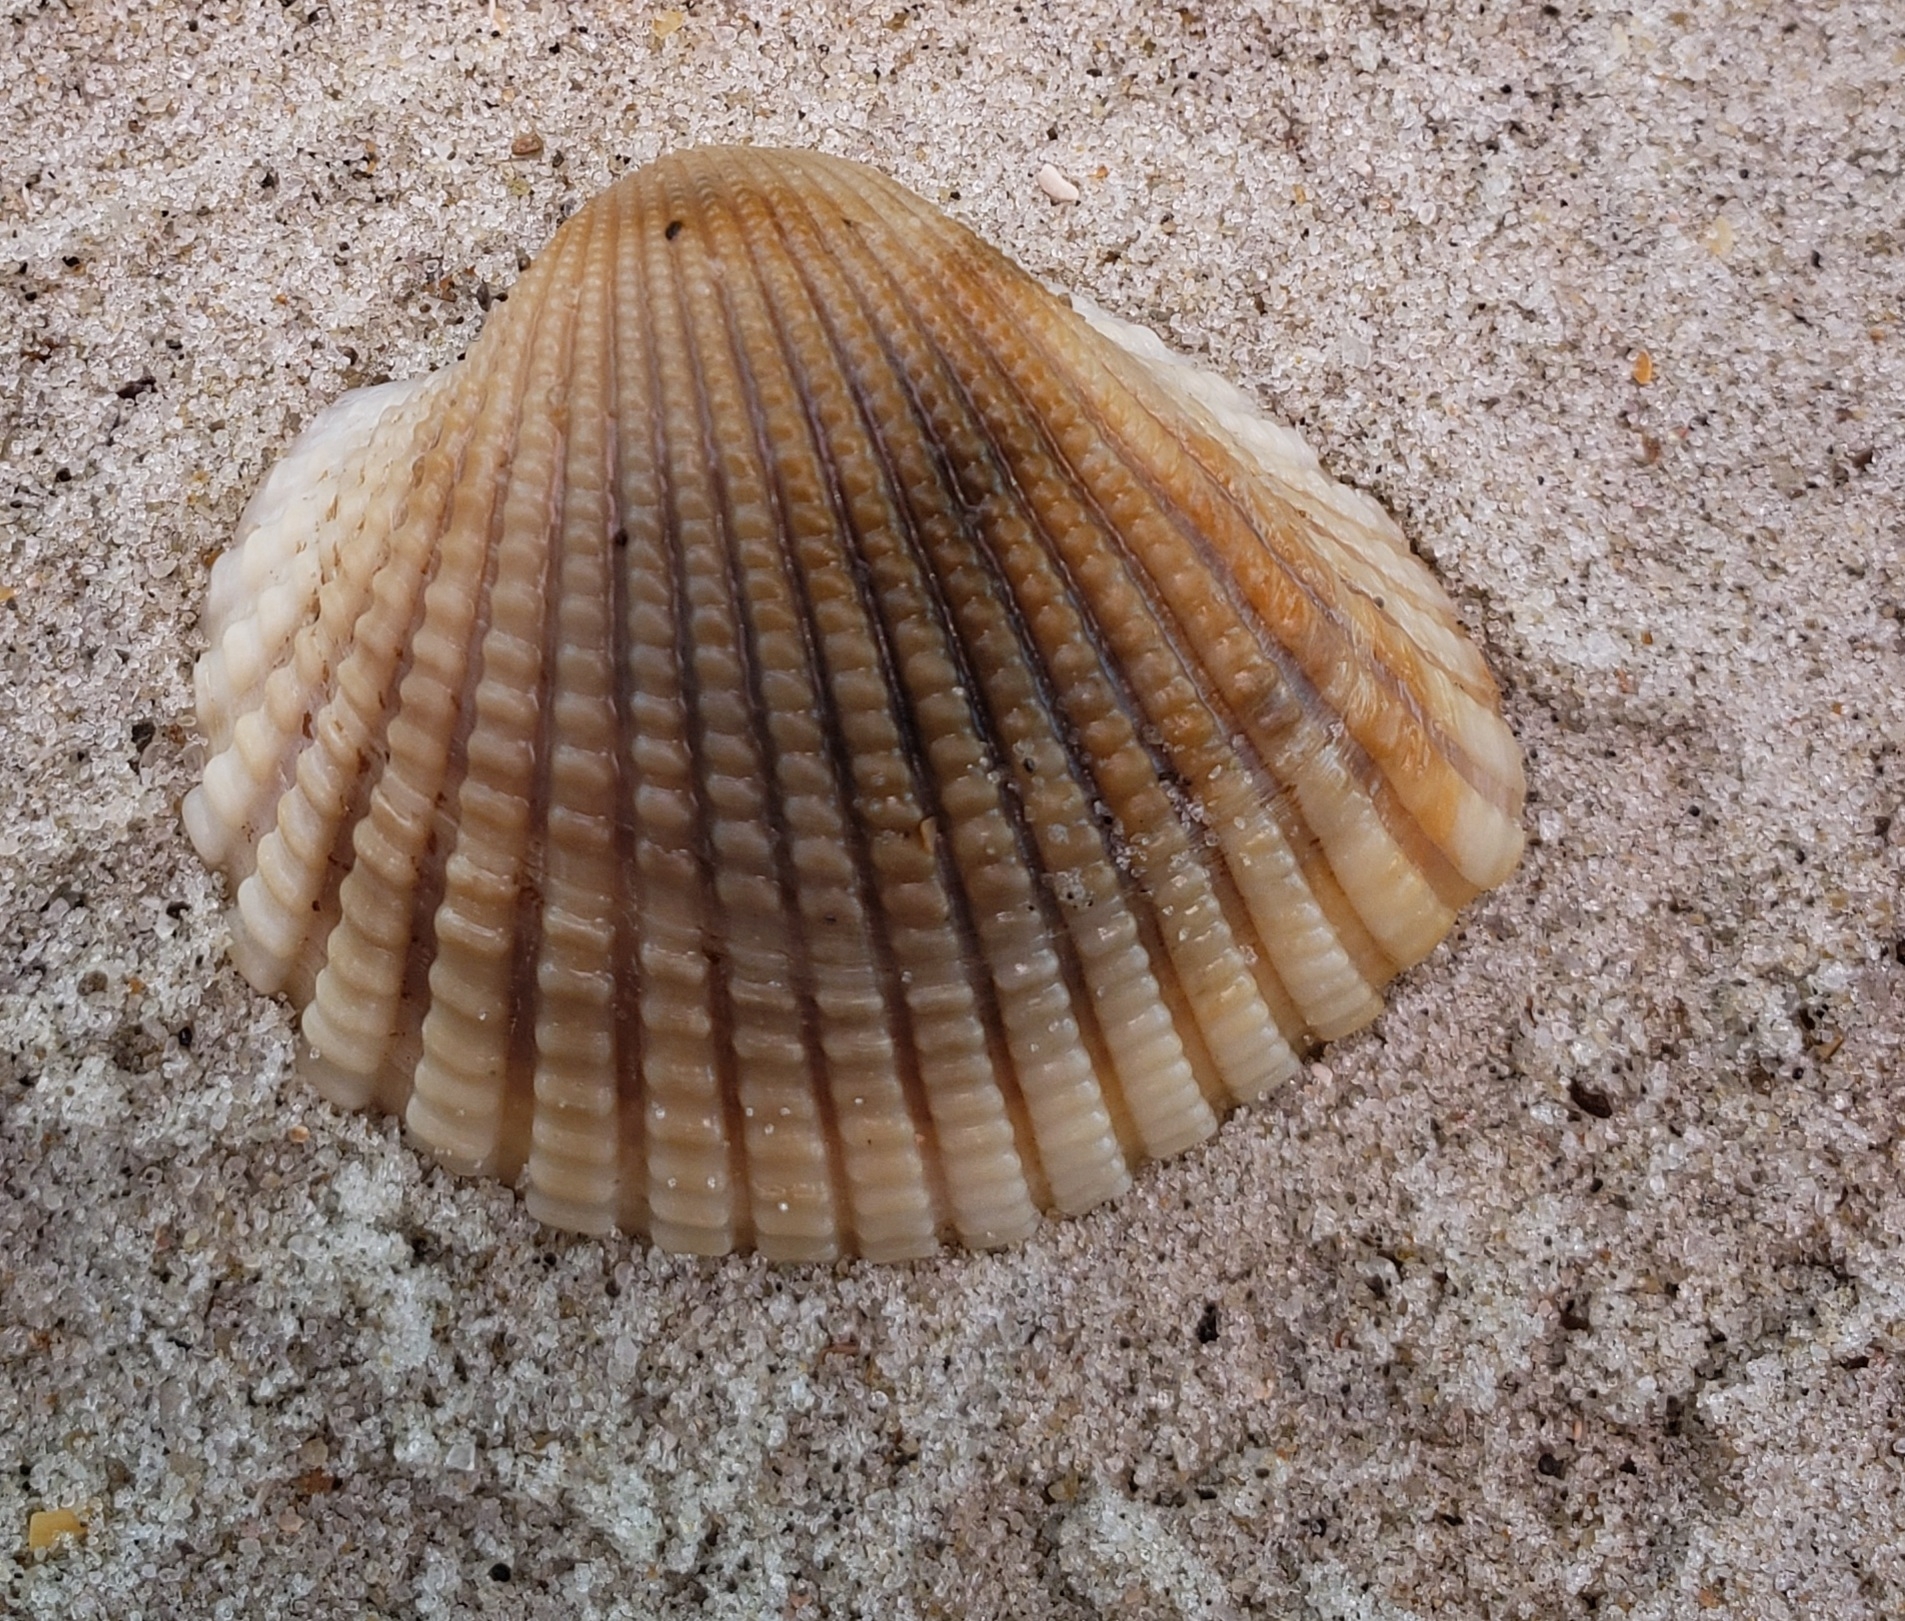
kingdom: Animalia
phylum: Mollusca
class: Bivalvia
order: Arcida
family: Arcidae
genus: Anadara
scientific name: Anadara brasiliana
